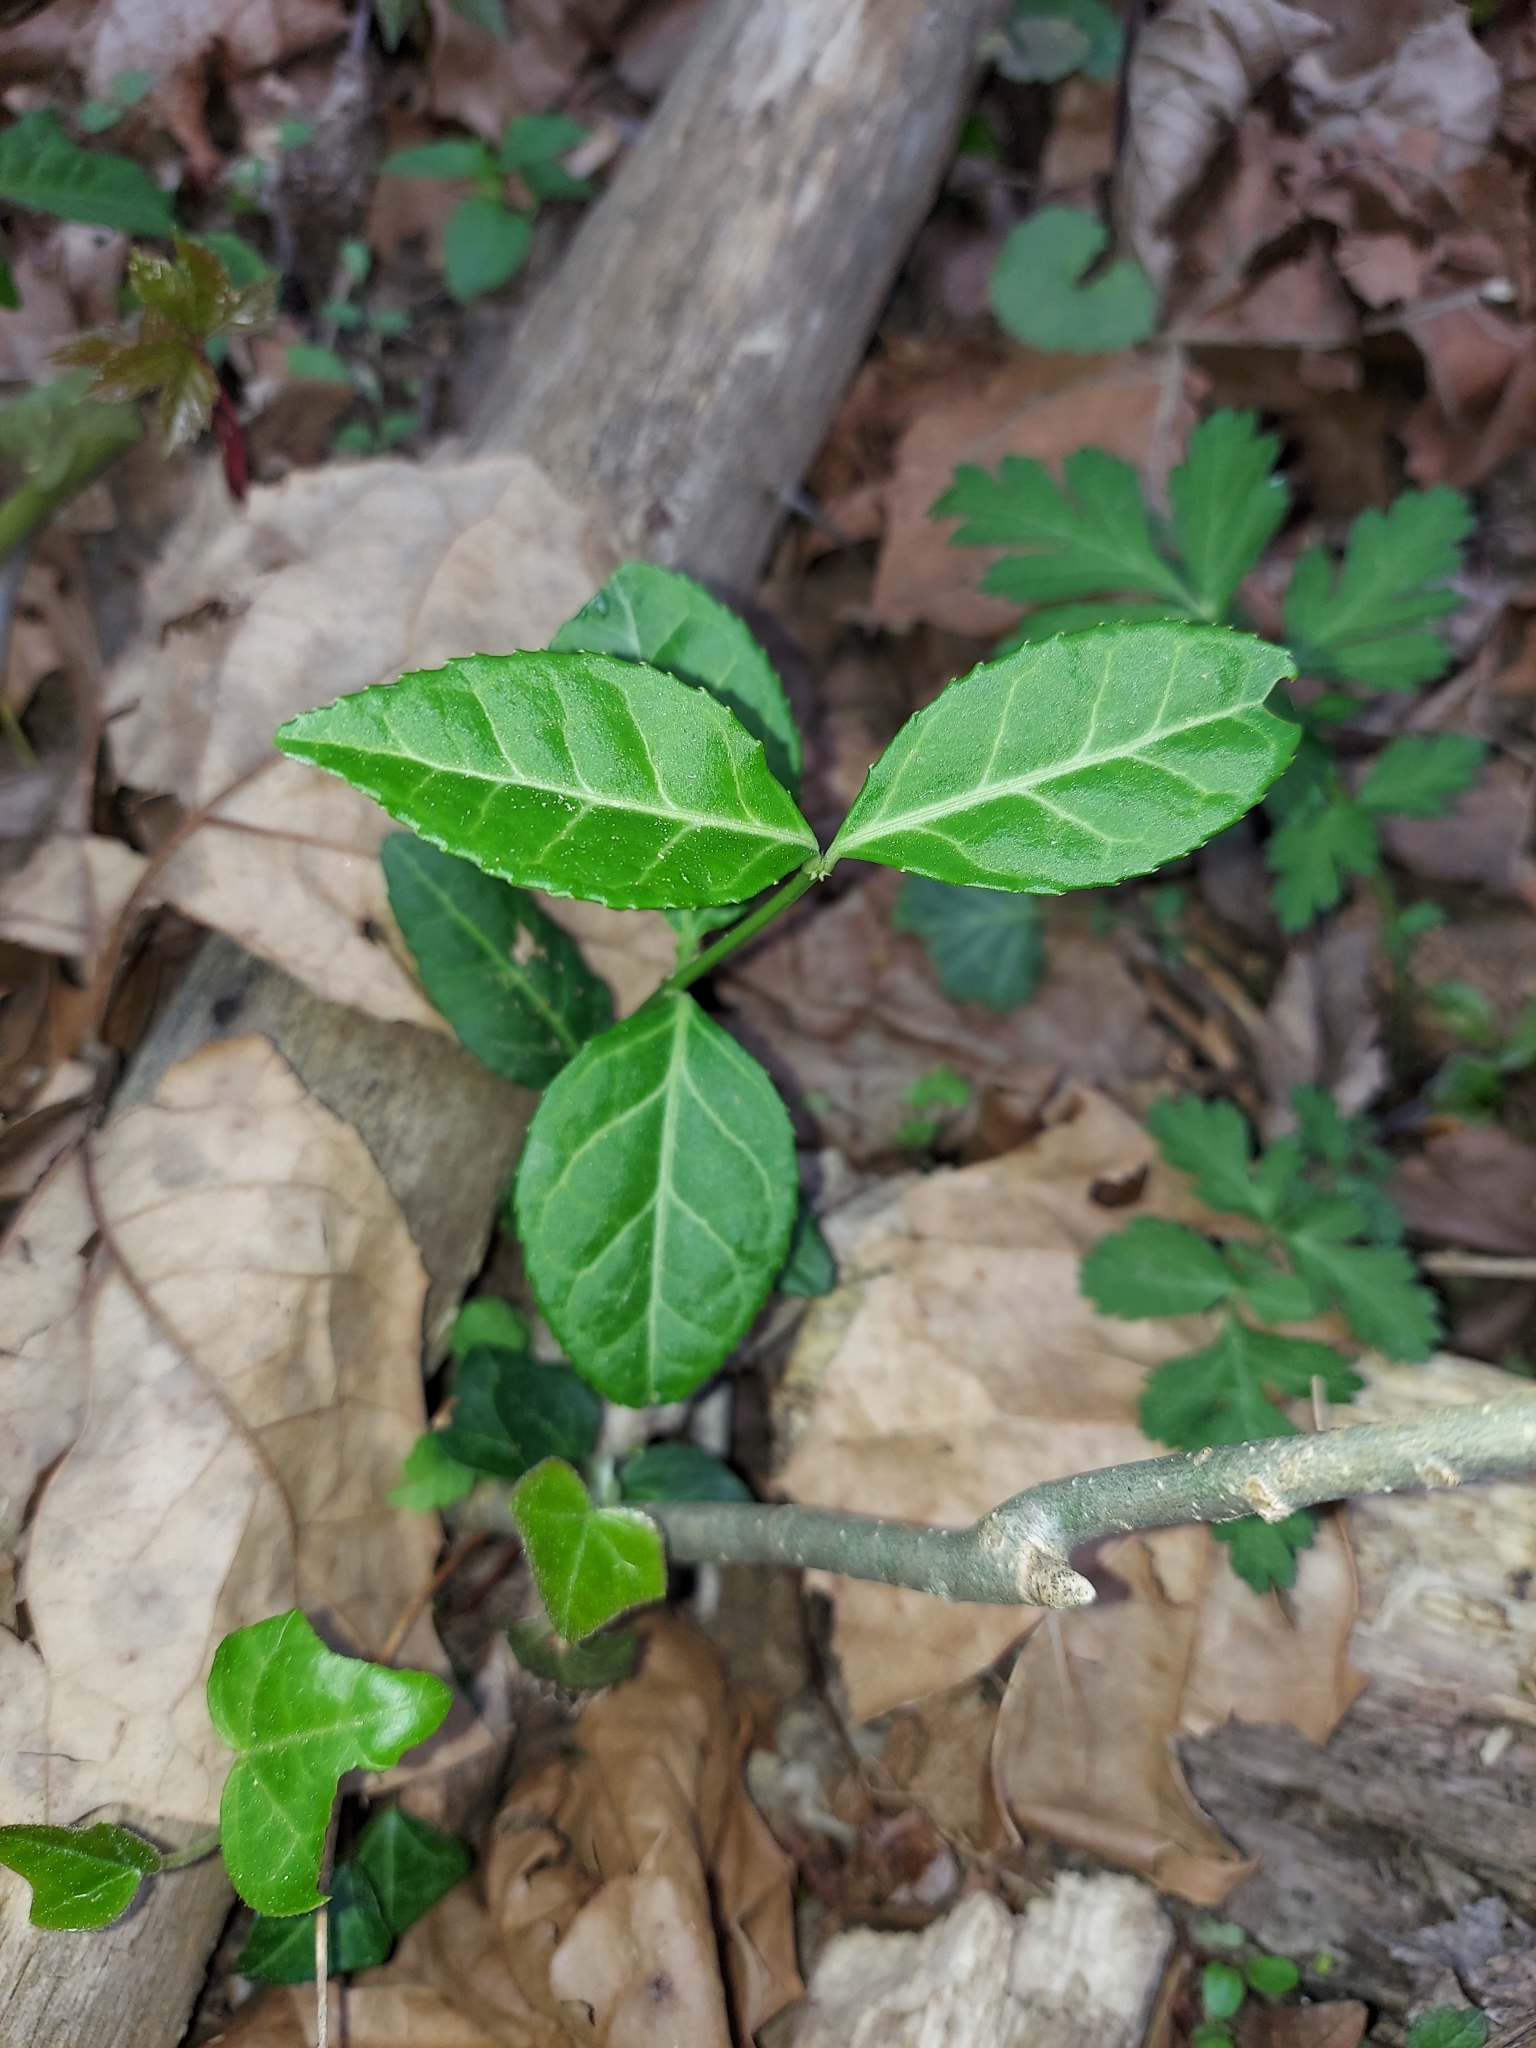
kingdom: Plantae
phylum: Tracheophyta
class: Magnoliopsida
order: Celastrales
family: Celastraceae
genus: Euonymus
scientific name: Euonymus fortunei
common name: Climbing euonymus
